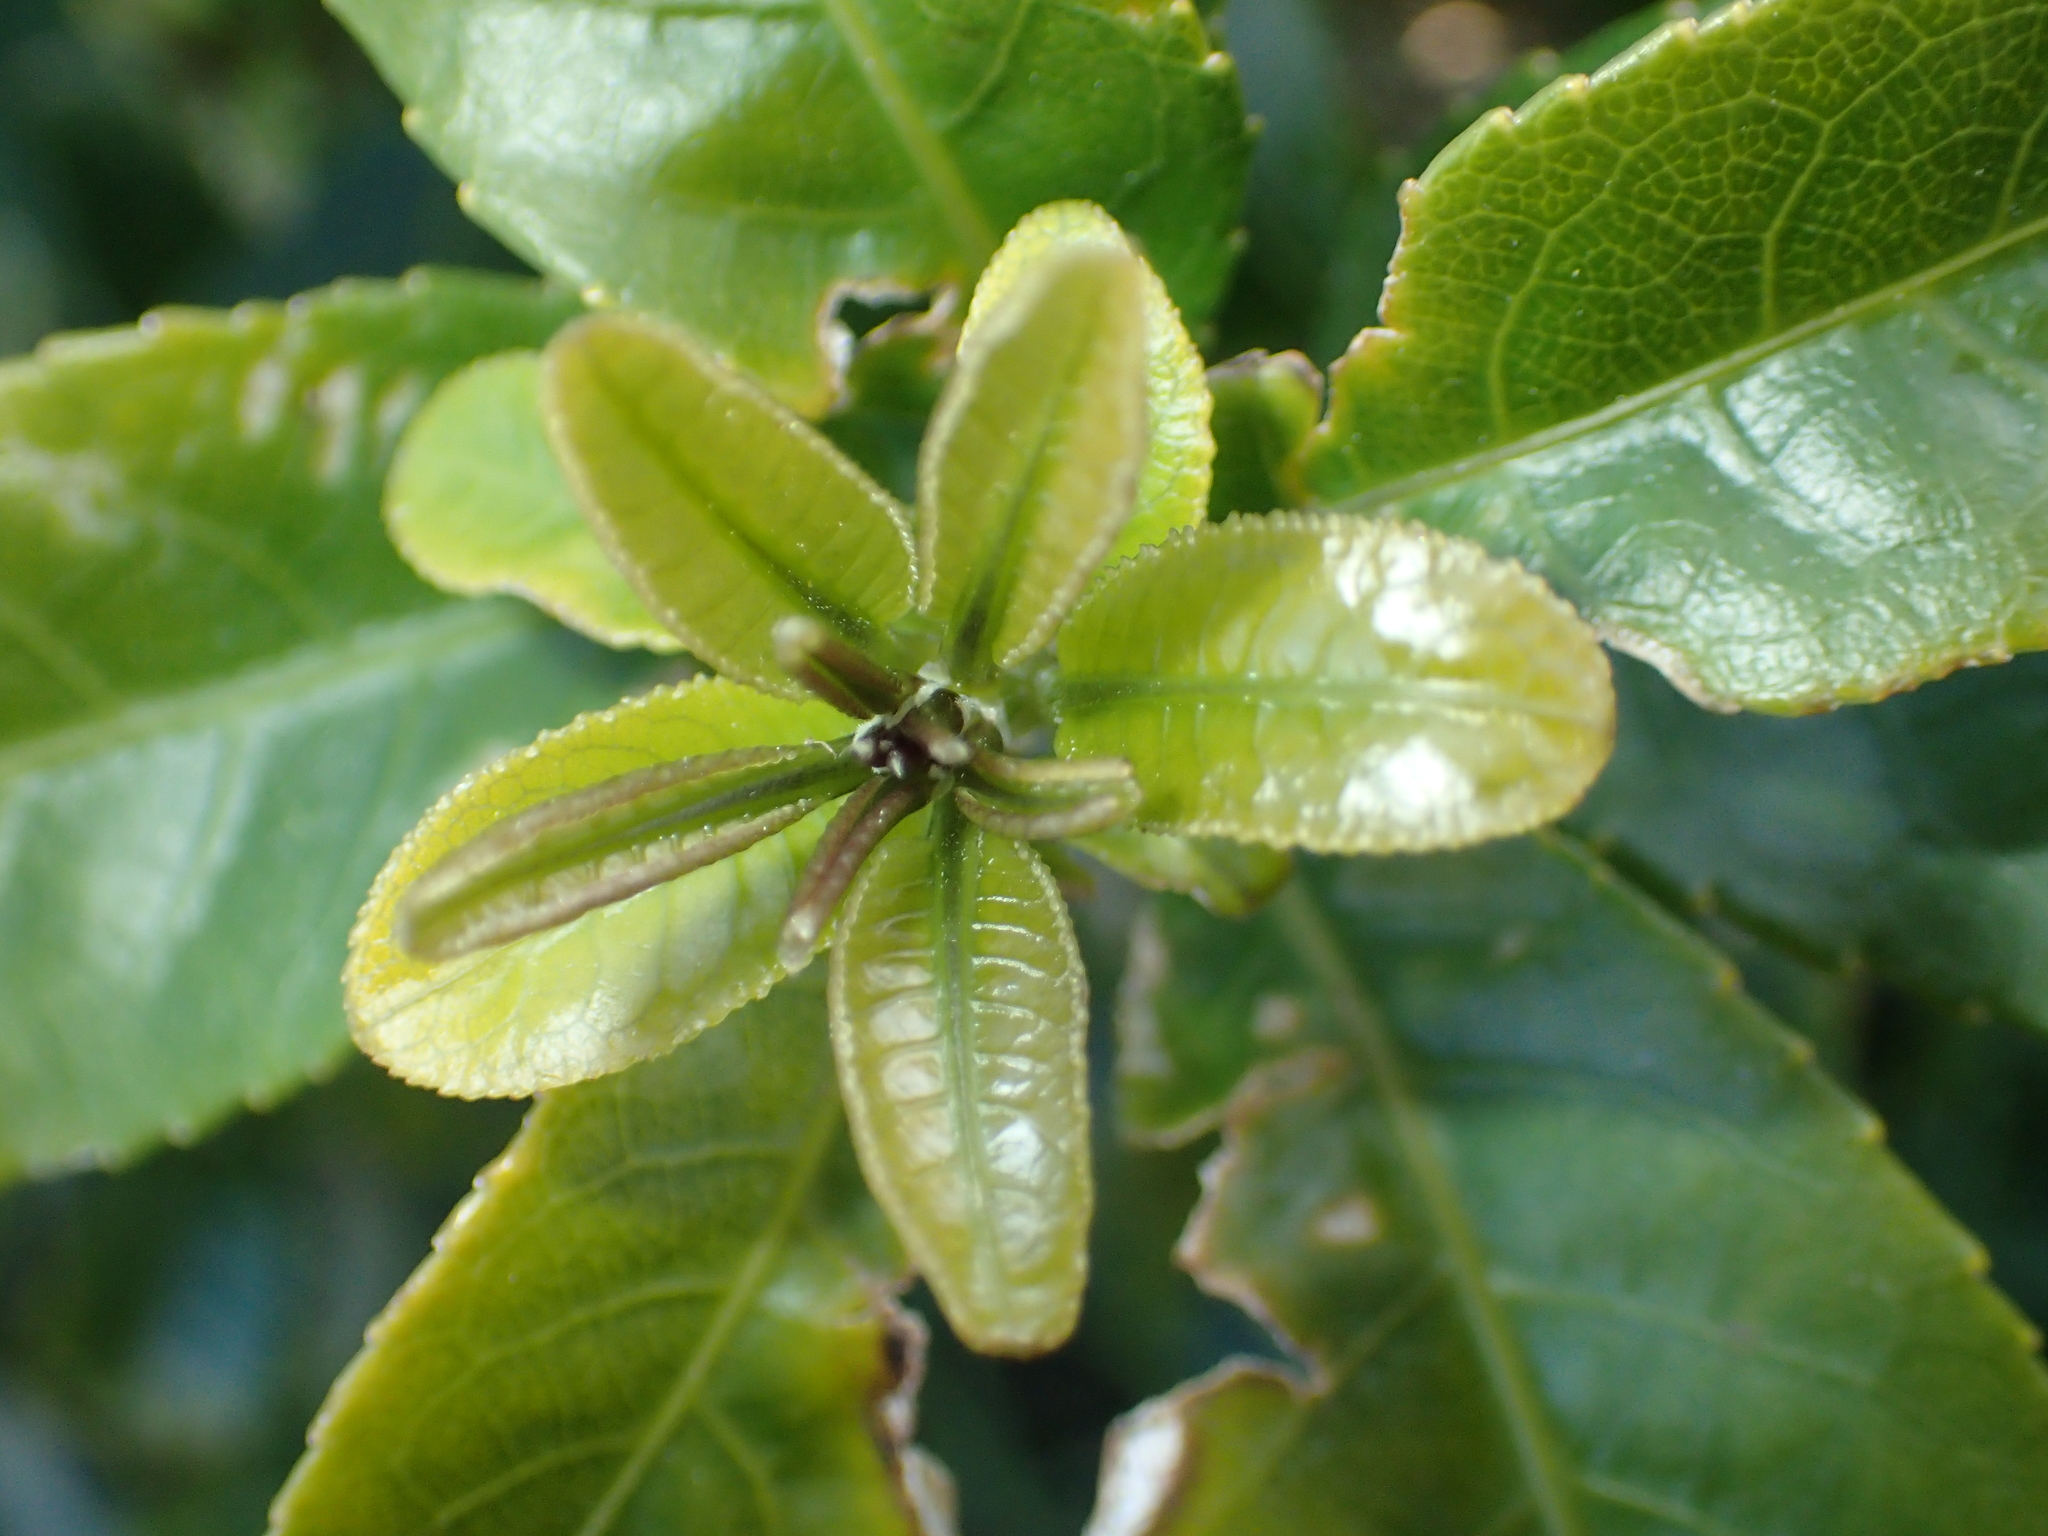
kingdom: Plantae
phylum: Tracheophyta
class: Magnoliopsida
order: Malpighiales
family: Violaceae
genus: Melicytus
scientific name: Melicytus ramiflorus
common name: Mahoe
